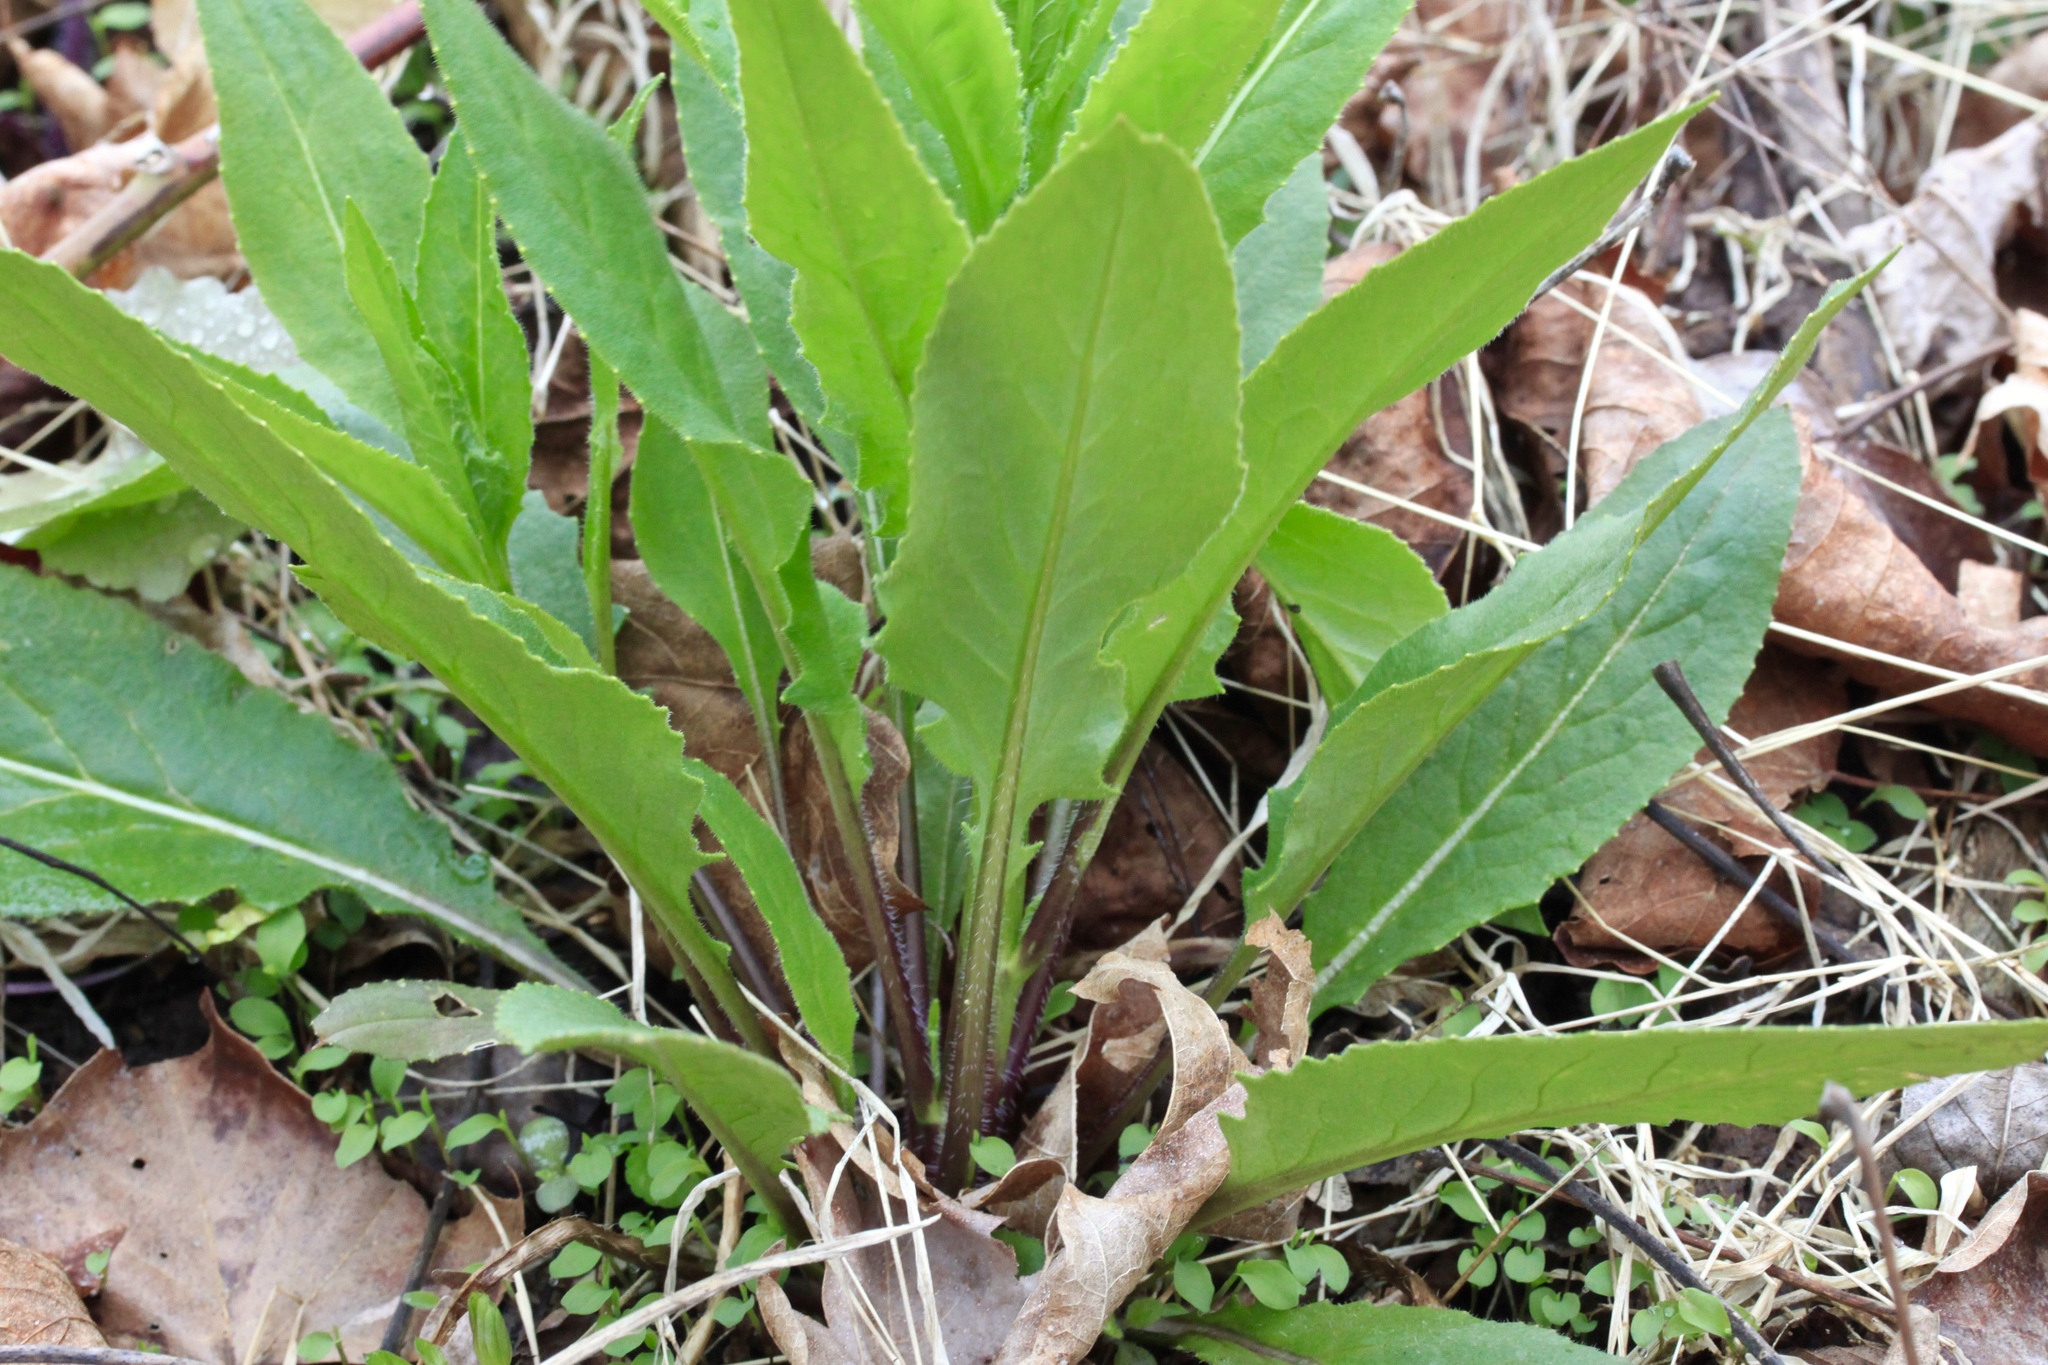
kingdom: Plantae
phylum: Tracheophyta
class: Magnoliopsida
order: Brassicales
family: Brassicaceae
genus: Hesperis
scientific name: Hesperis matronalis
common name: Dame's-violet
